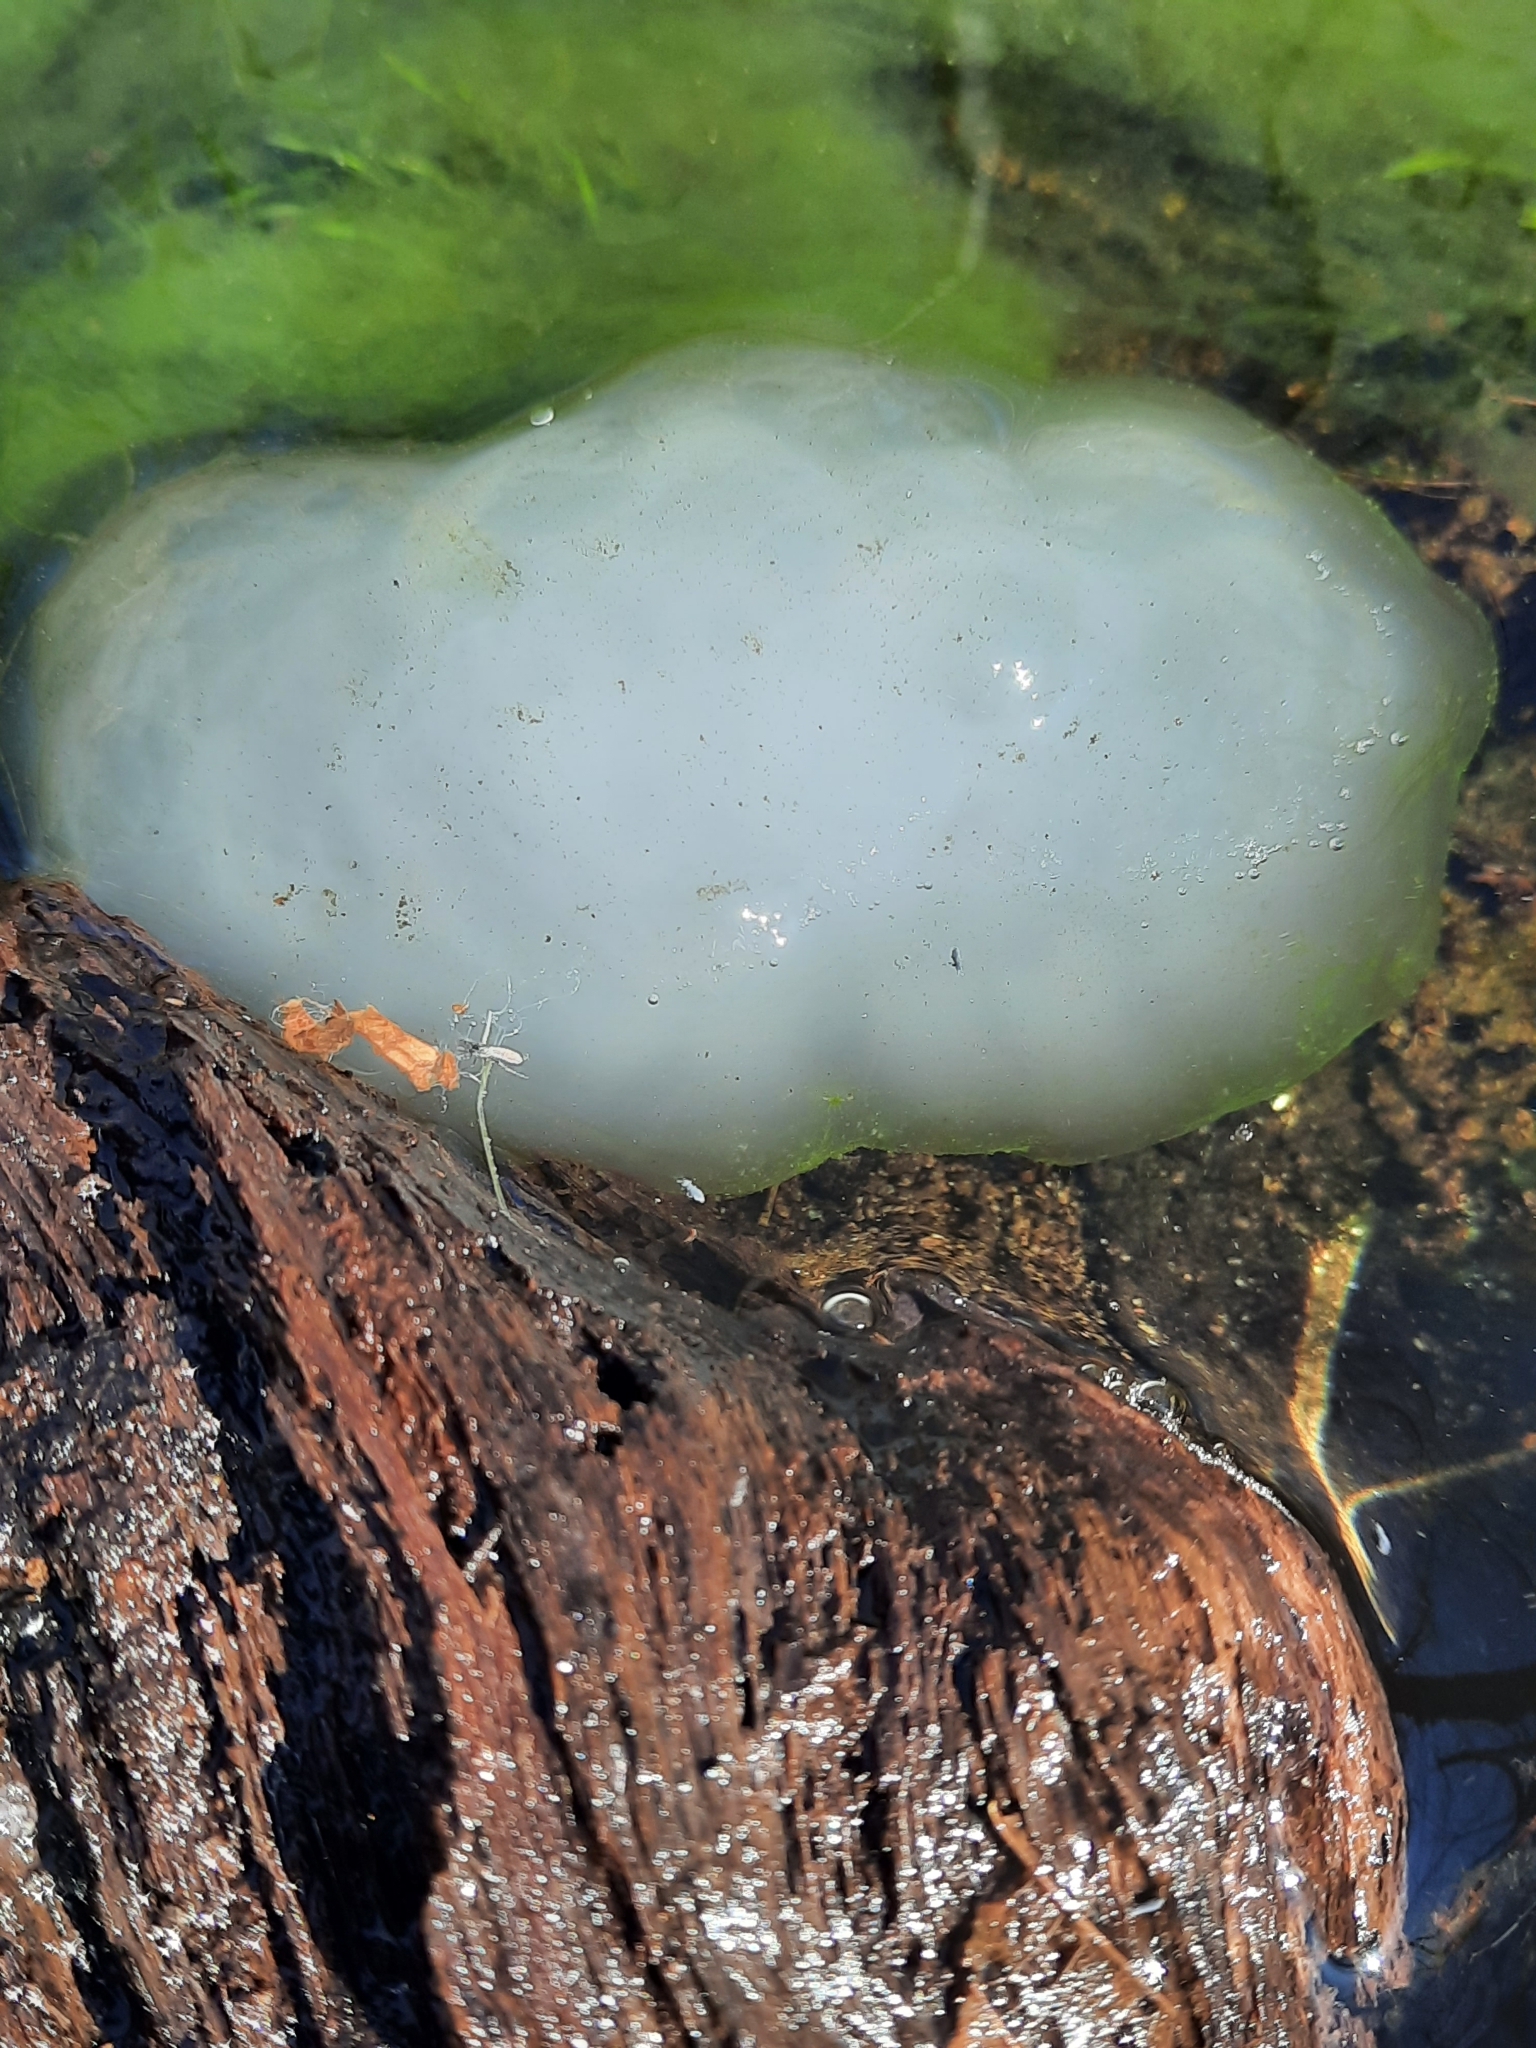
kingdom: Animalia
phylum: Chordata
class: Amphibia
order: Caudata
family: Ambystomatidae
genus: Ambystoma
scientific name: Ambystoma maculatum
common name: Spotted salamander
